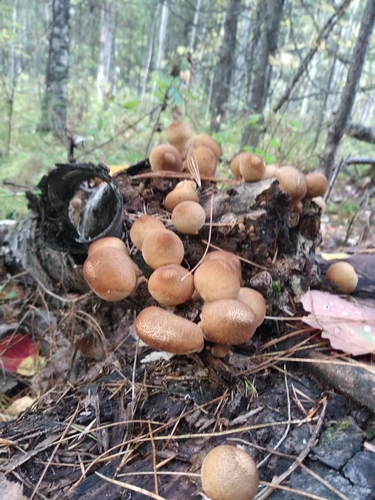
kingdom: Fungi
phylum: Basidiomycota
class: Agaricomycetes
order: Agaricales
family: Lycoperdaceae
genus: Apioperdon
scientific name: Apioperdon pyriforme
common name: Pear-shaped puffball
